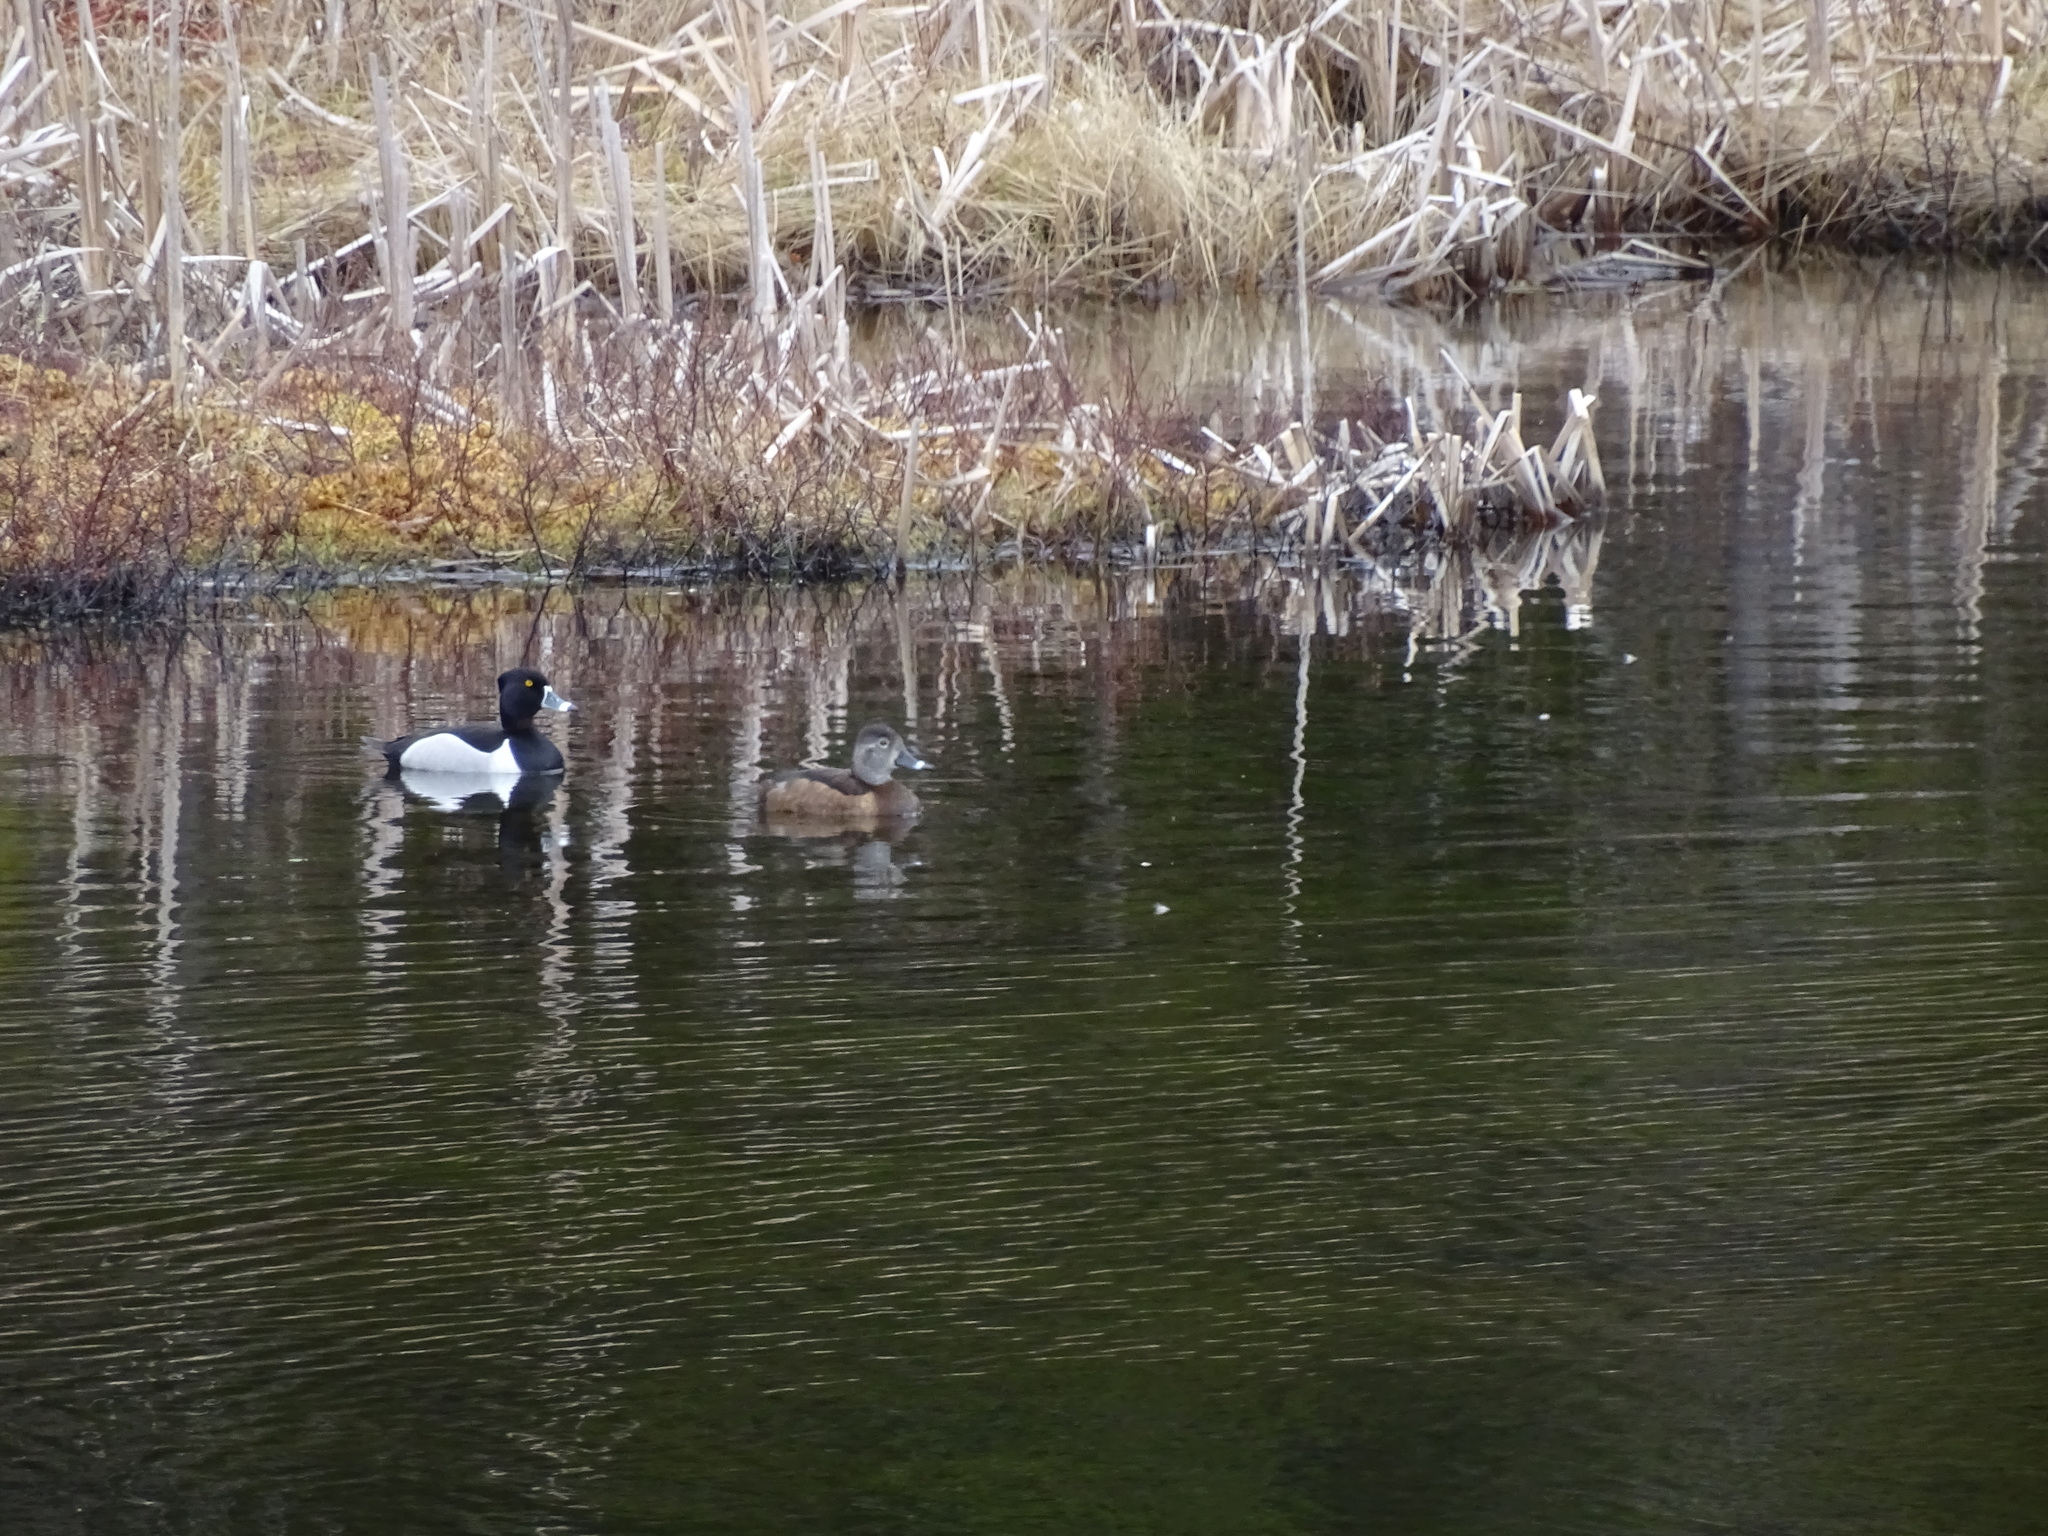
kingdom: Animalia
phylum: Chordata
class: Aves
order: Anseriformes
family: Anatidae
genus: Aythya
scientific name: Aythya collaris
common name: Ring-necked duck
